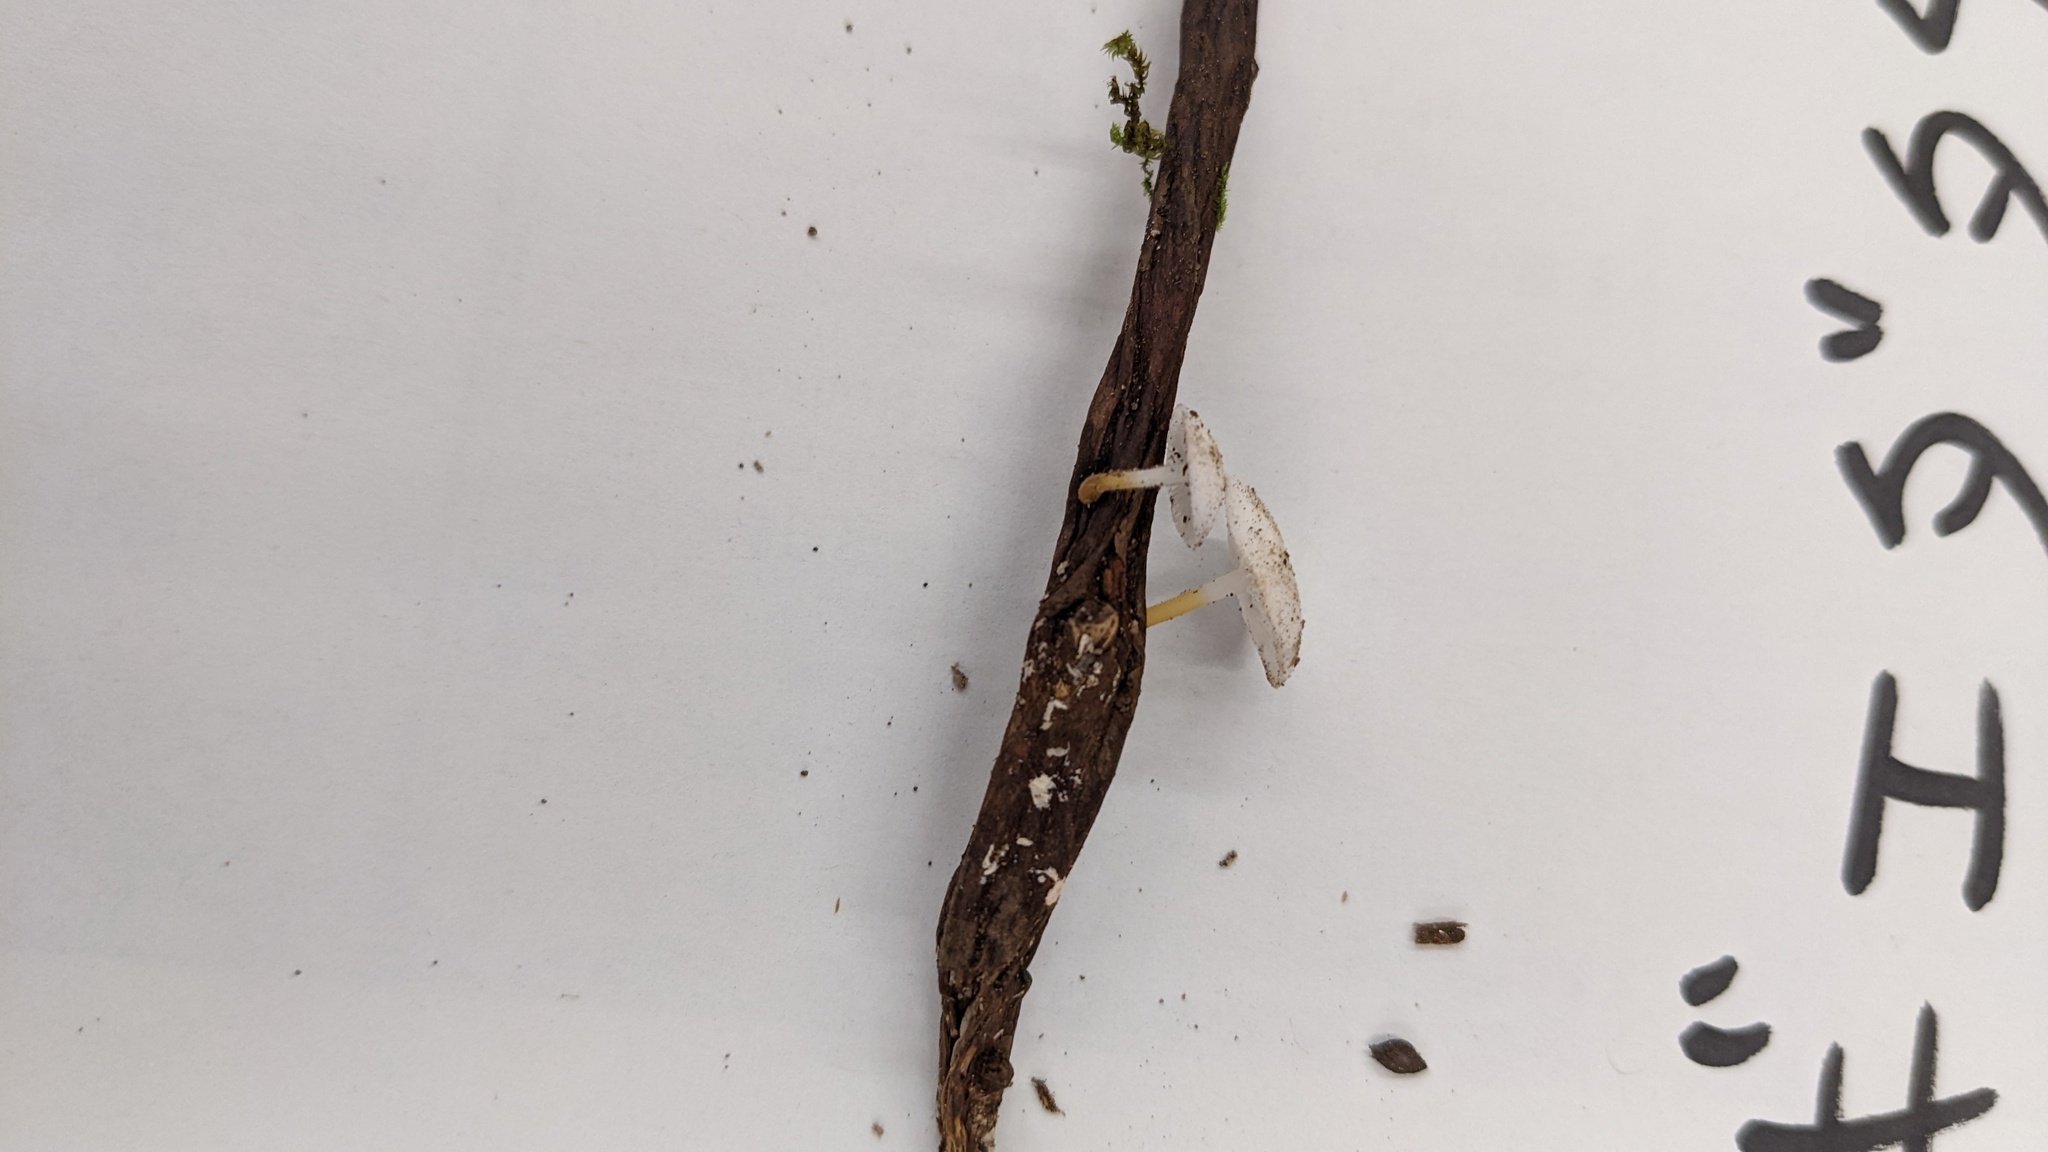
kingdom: Fungi
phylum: Basidiomycota
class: Agaricomycetes
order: Agaricales
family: Physalacriaceae
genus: Strobilurus
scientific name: Strobilurus ohshimae
